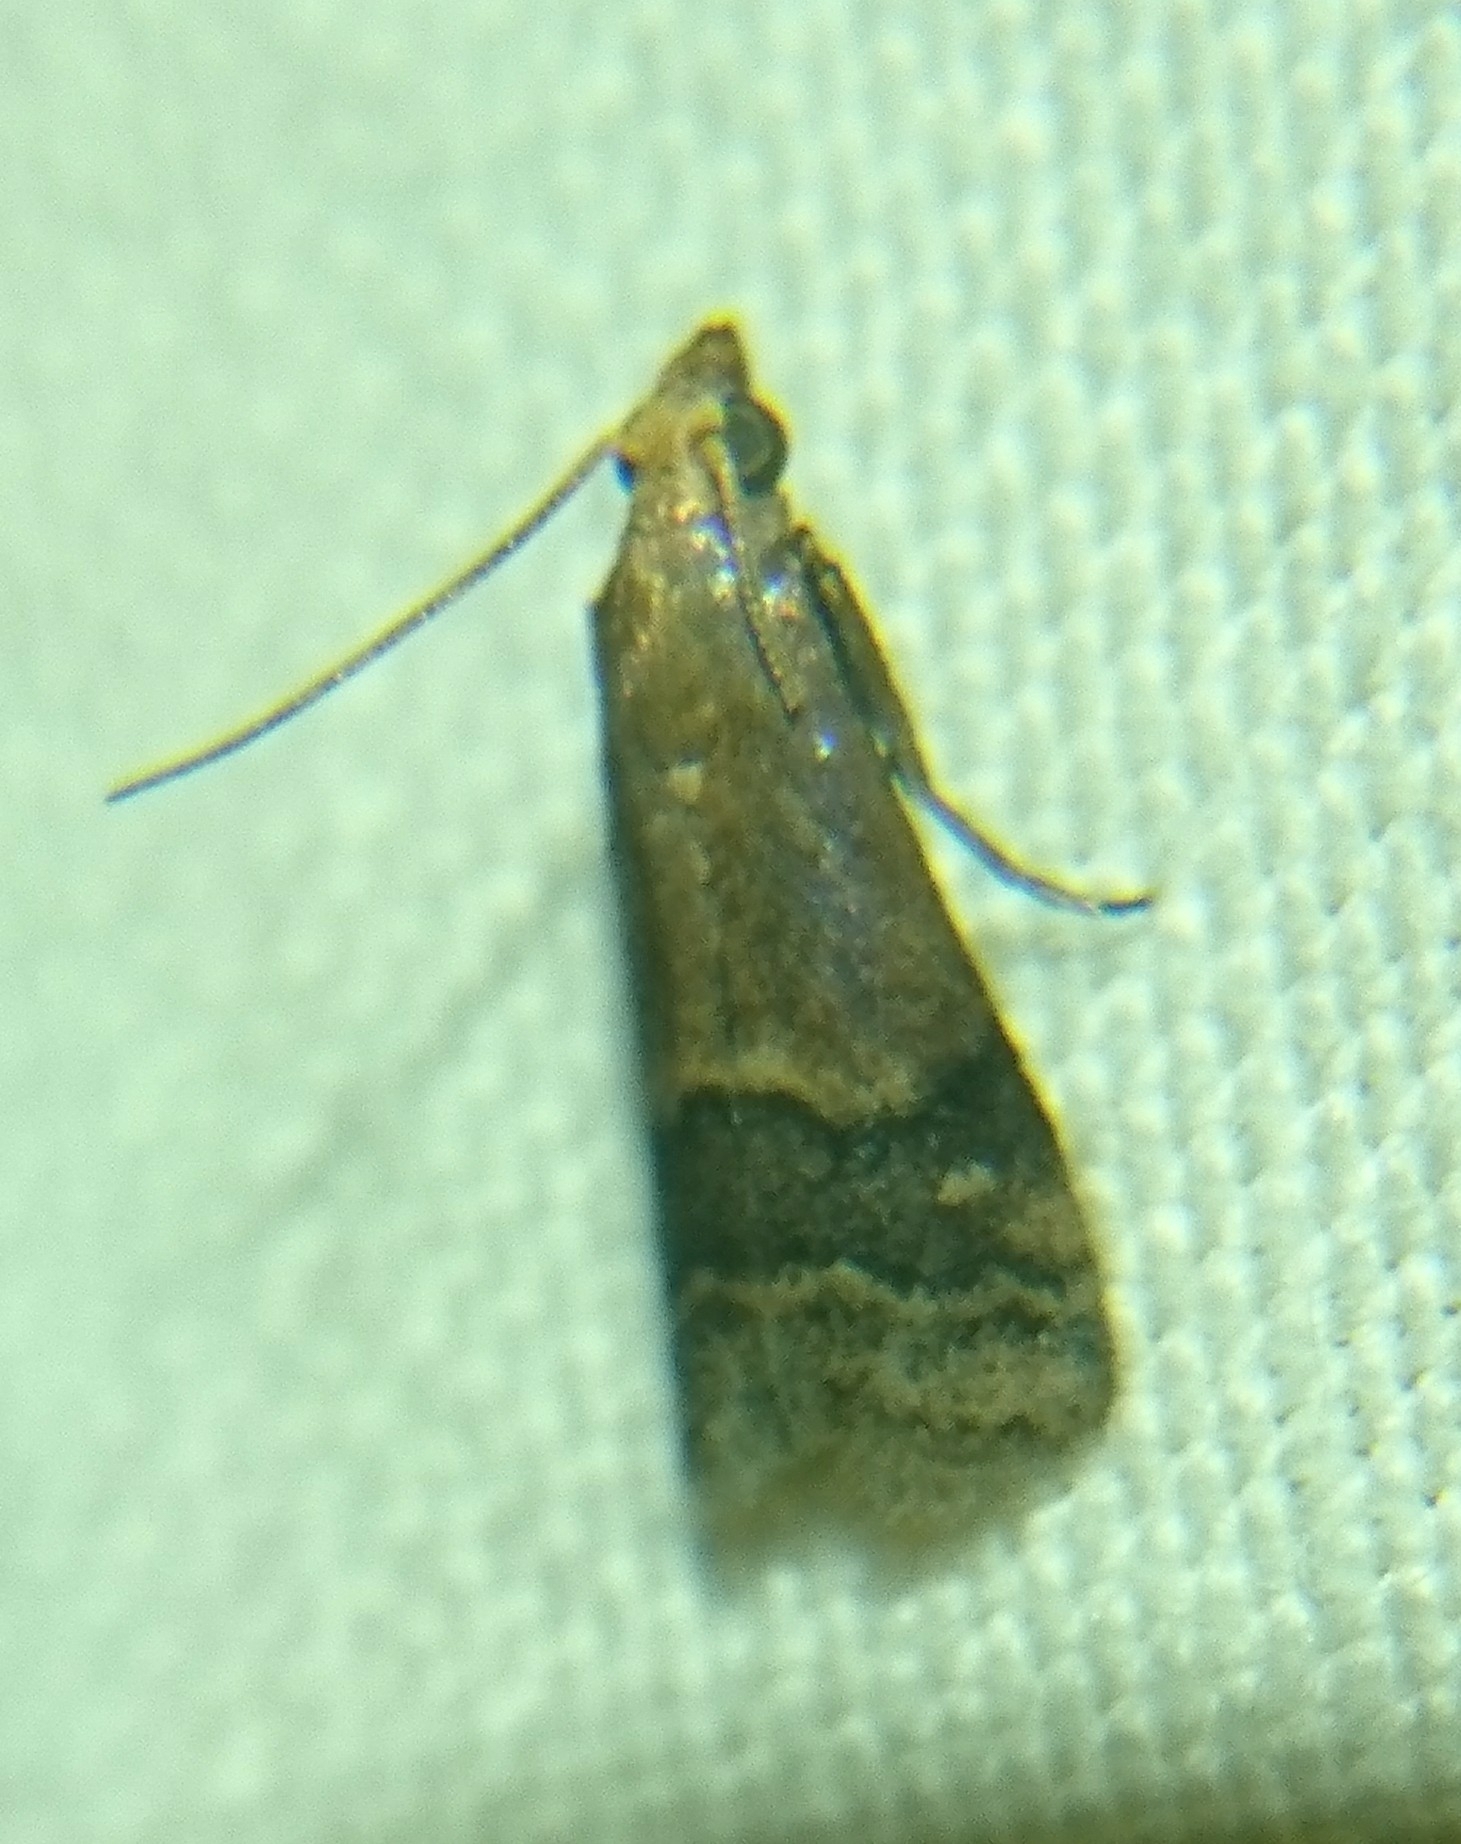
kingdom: Animalia
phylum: Arthropoda
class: Insecta
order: Lepidoptera
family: Pyralidae
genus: Eulogia
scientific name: Eulogia ochrifrontella
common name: Broad-banded eulogia moth
